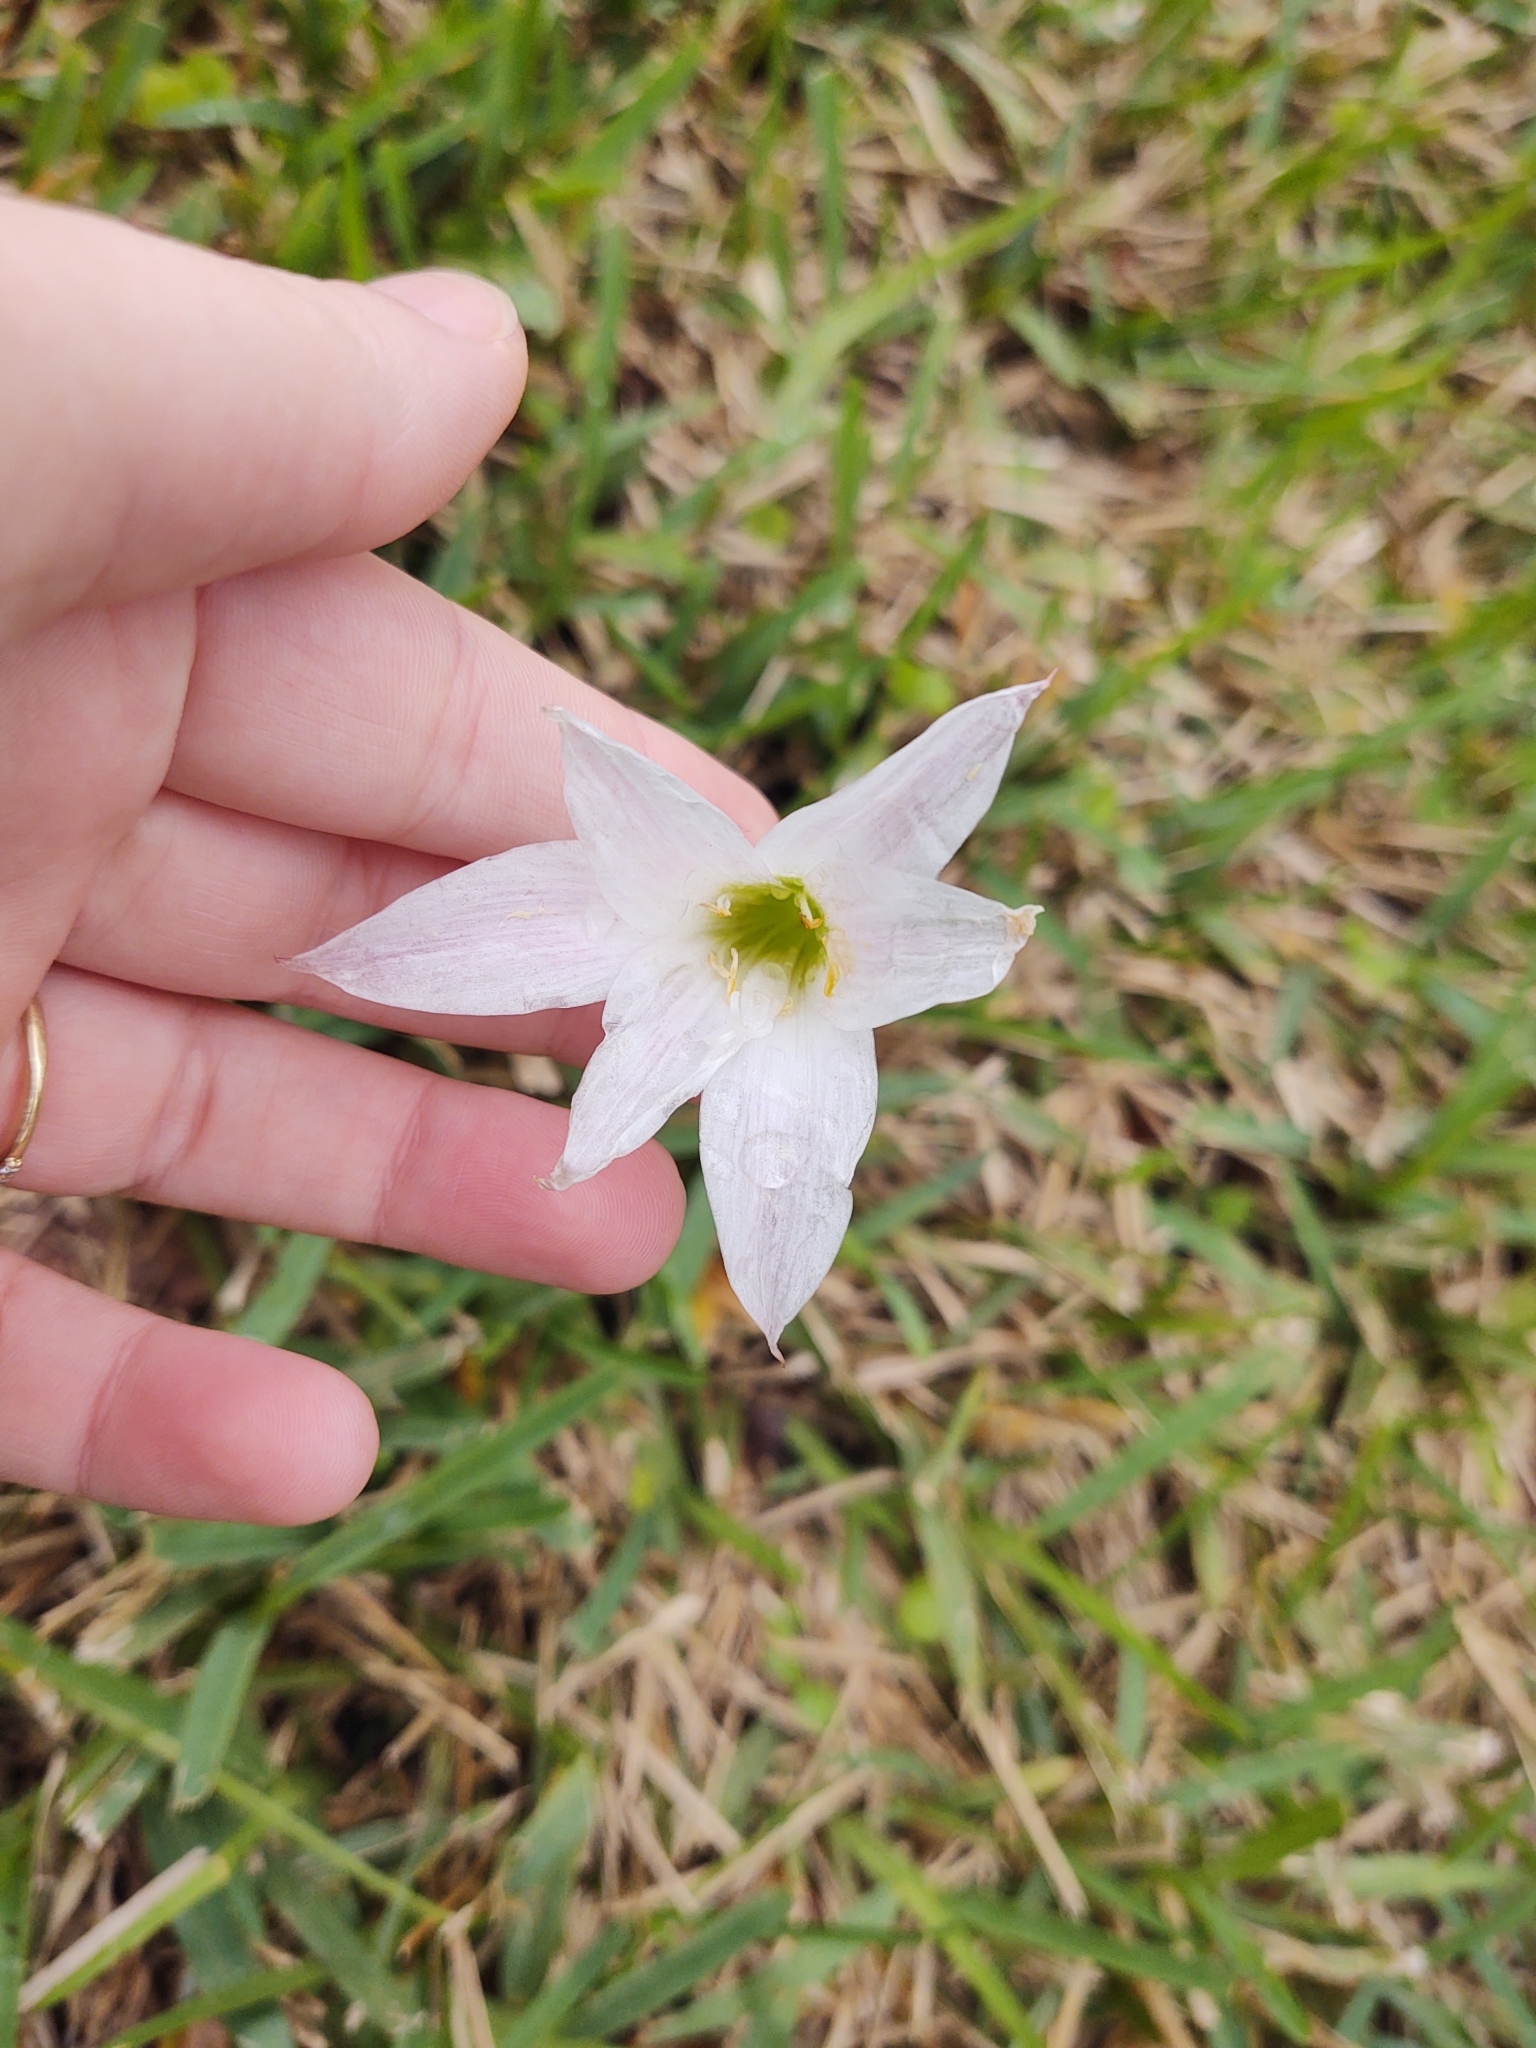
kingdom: Plantae
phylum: Tracheophyta
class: Liliopsida
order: Asparagales
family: Amaryllidaceae
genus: Zephyranthes
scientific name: Zephyranthes atamasco
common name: Atamasco lily
